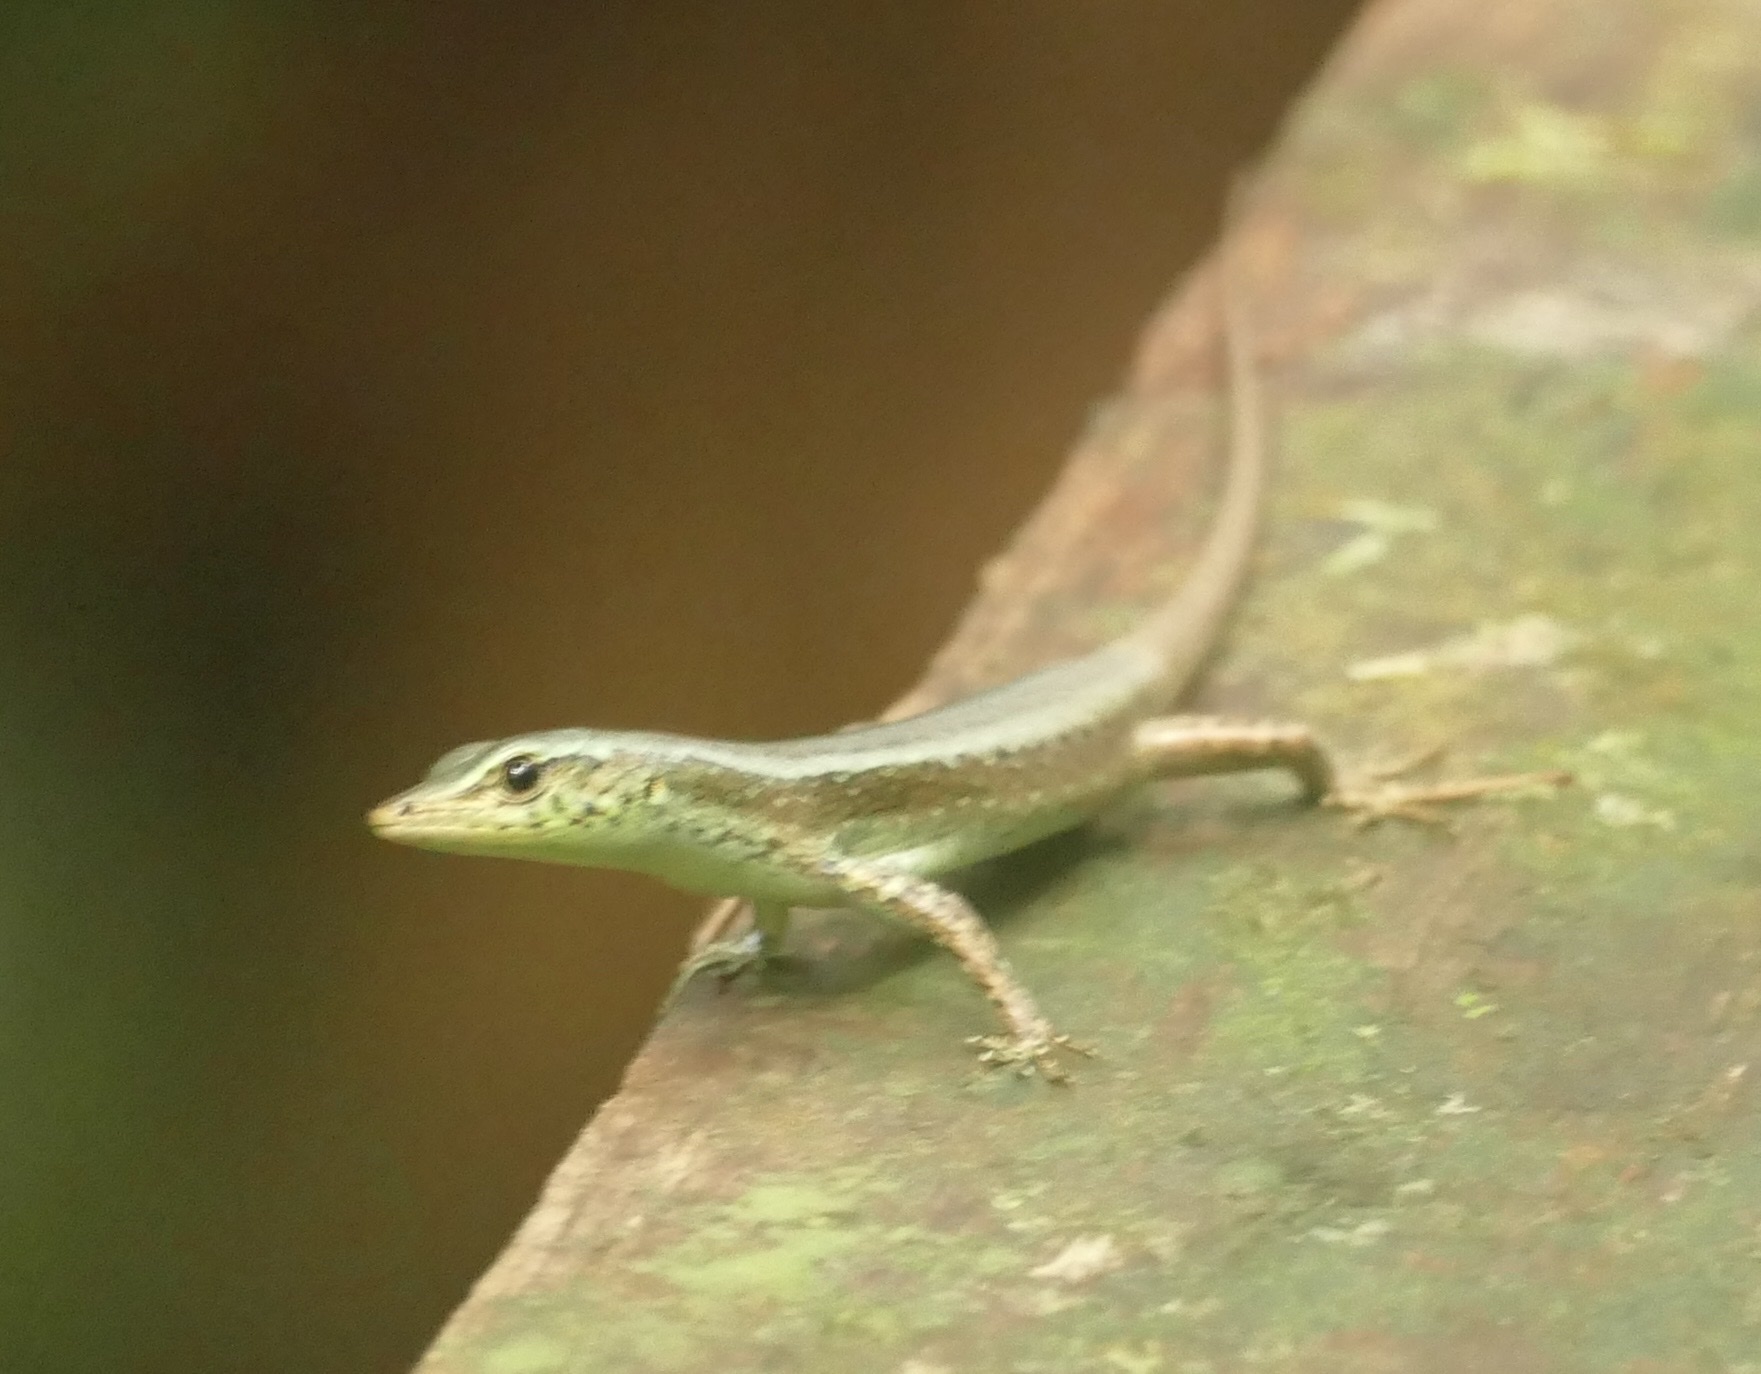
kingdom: Animalia
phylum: Chordata
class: Squamata
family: Scincidae
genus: Emoia
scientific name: Emoia kordoana
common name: Slender tree skink
